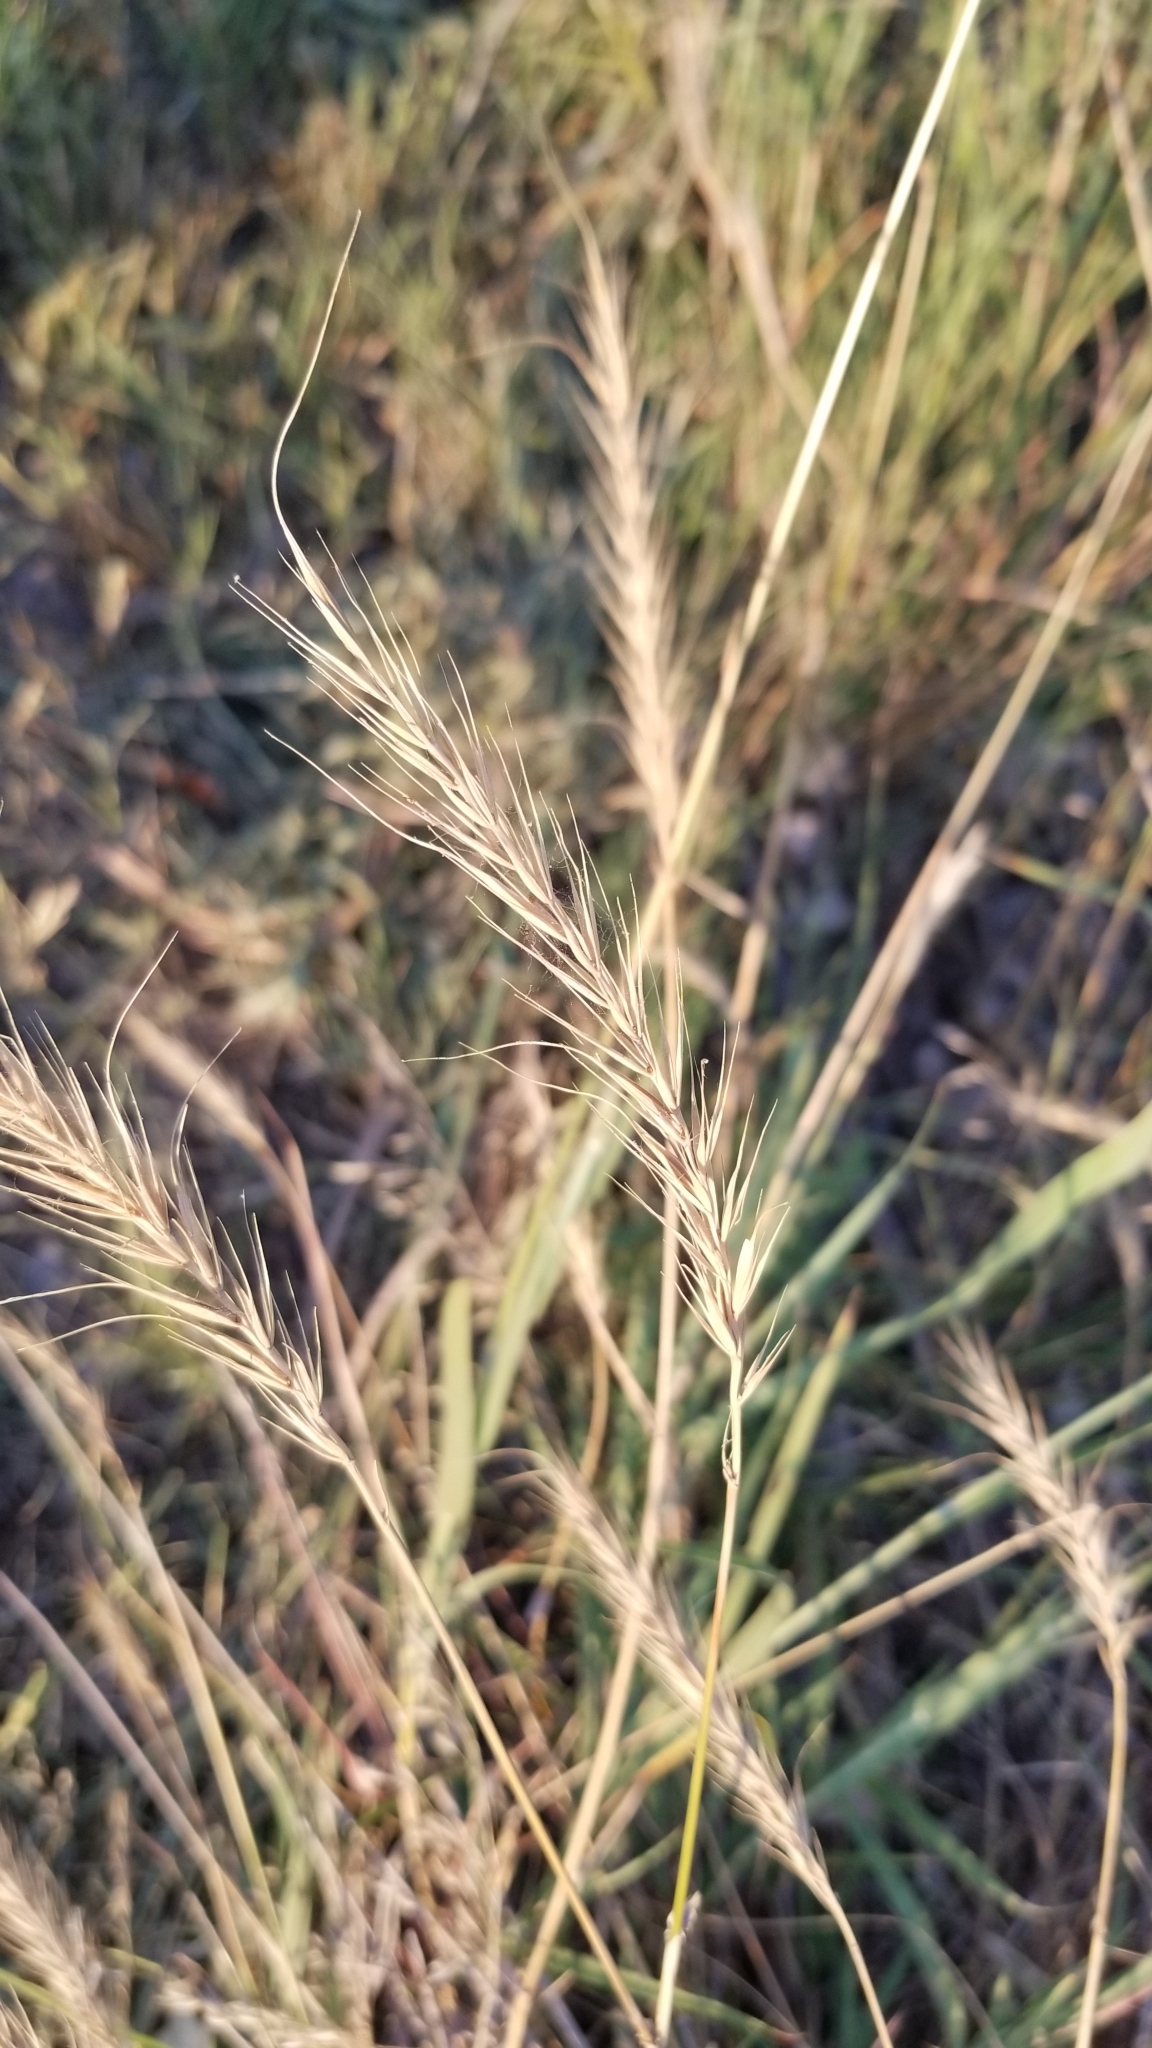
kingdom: Plantae
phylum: Tracheophyta
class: Liliopsida
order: Poales
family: Poaceae
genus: Elymus
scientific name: Elymus canadensis
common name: Canada wild rye
